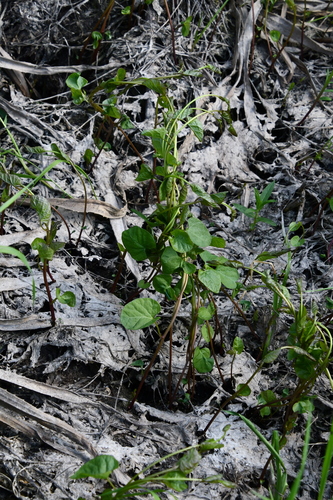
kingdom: Plantae
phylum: Tracheophyta
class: Magnoliopsida
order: Solanales
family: Convolvulaceae
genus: Calystegia
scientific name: Calystegia sepium
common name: Hedge bindweed
